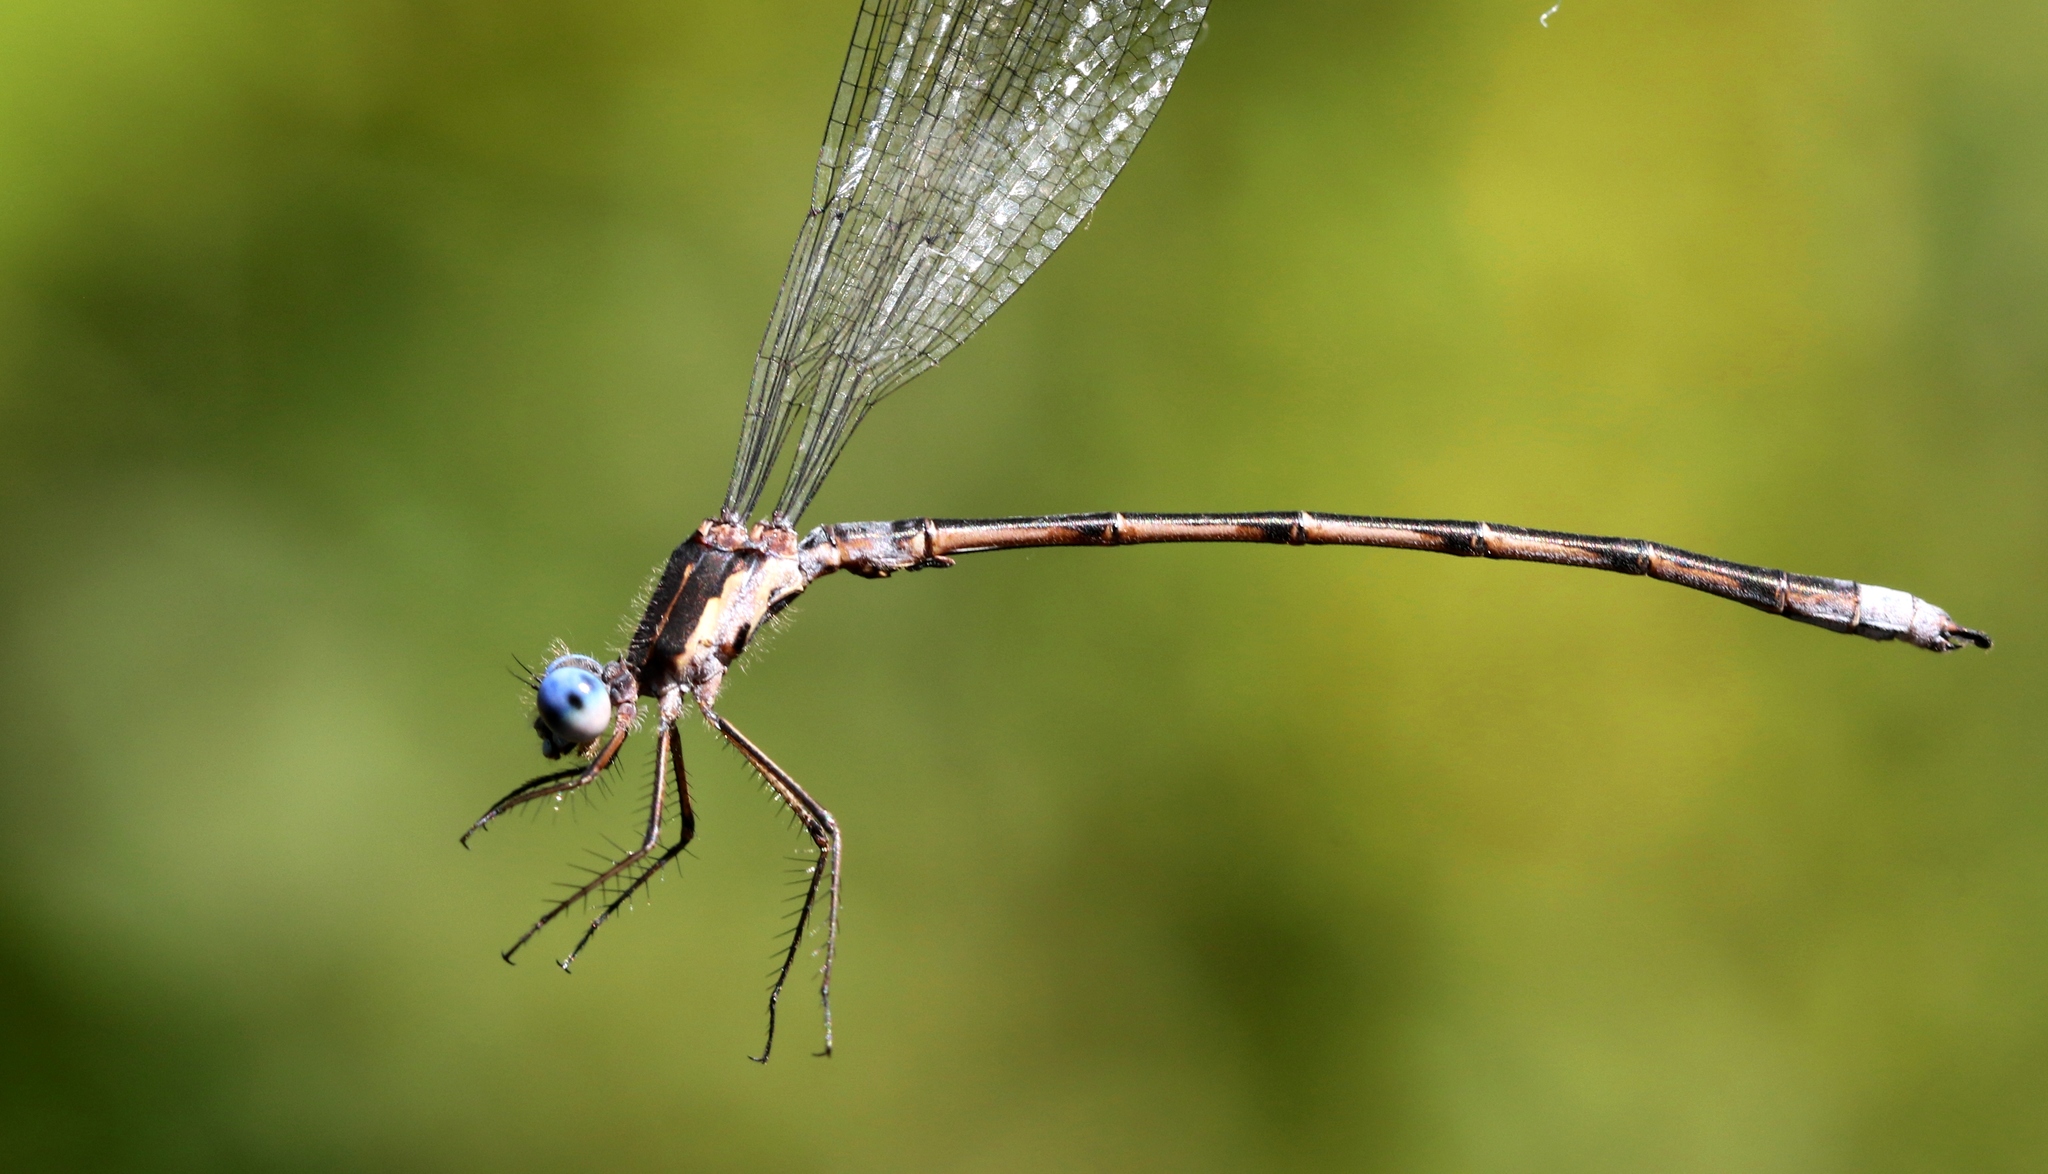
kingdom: Animalia
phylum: Arthropoda
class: Insecta
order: Odonata
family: Lestidae
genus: Lestes
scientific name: Lestes congener
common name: Spotted spreadwing
